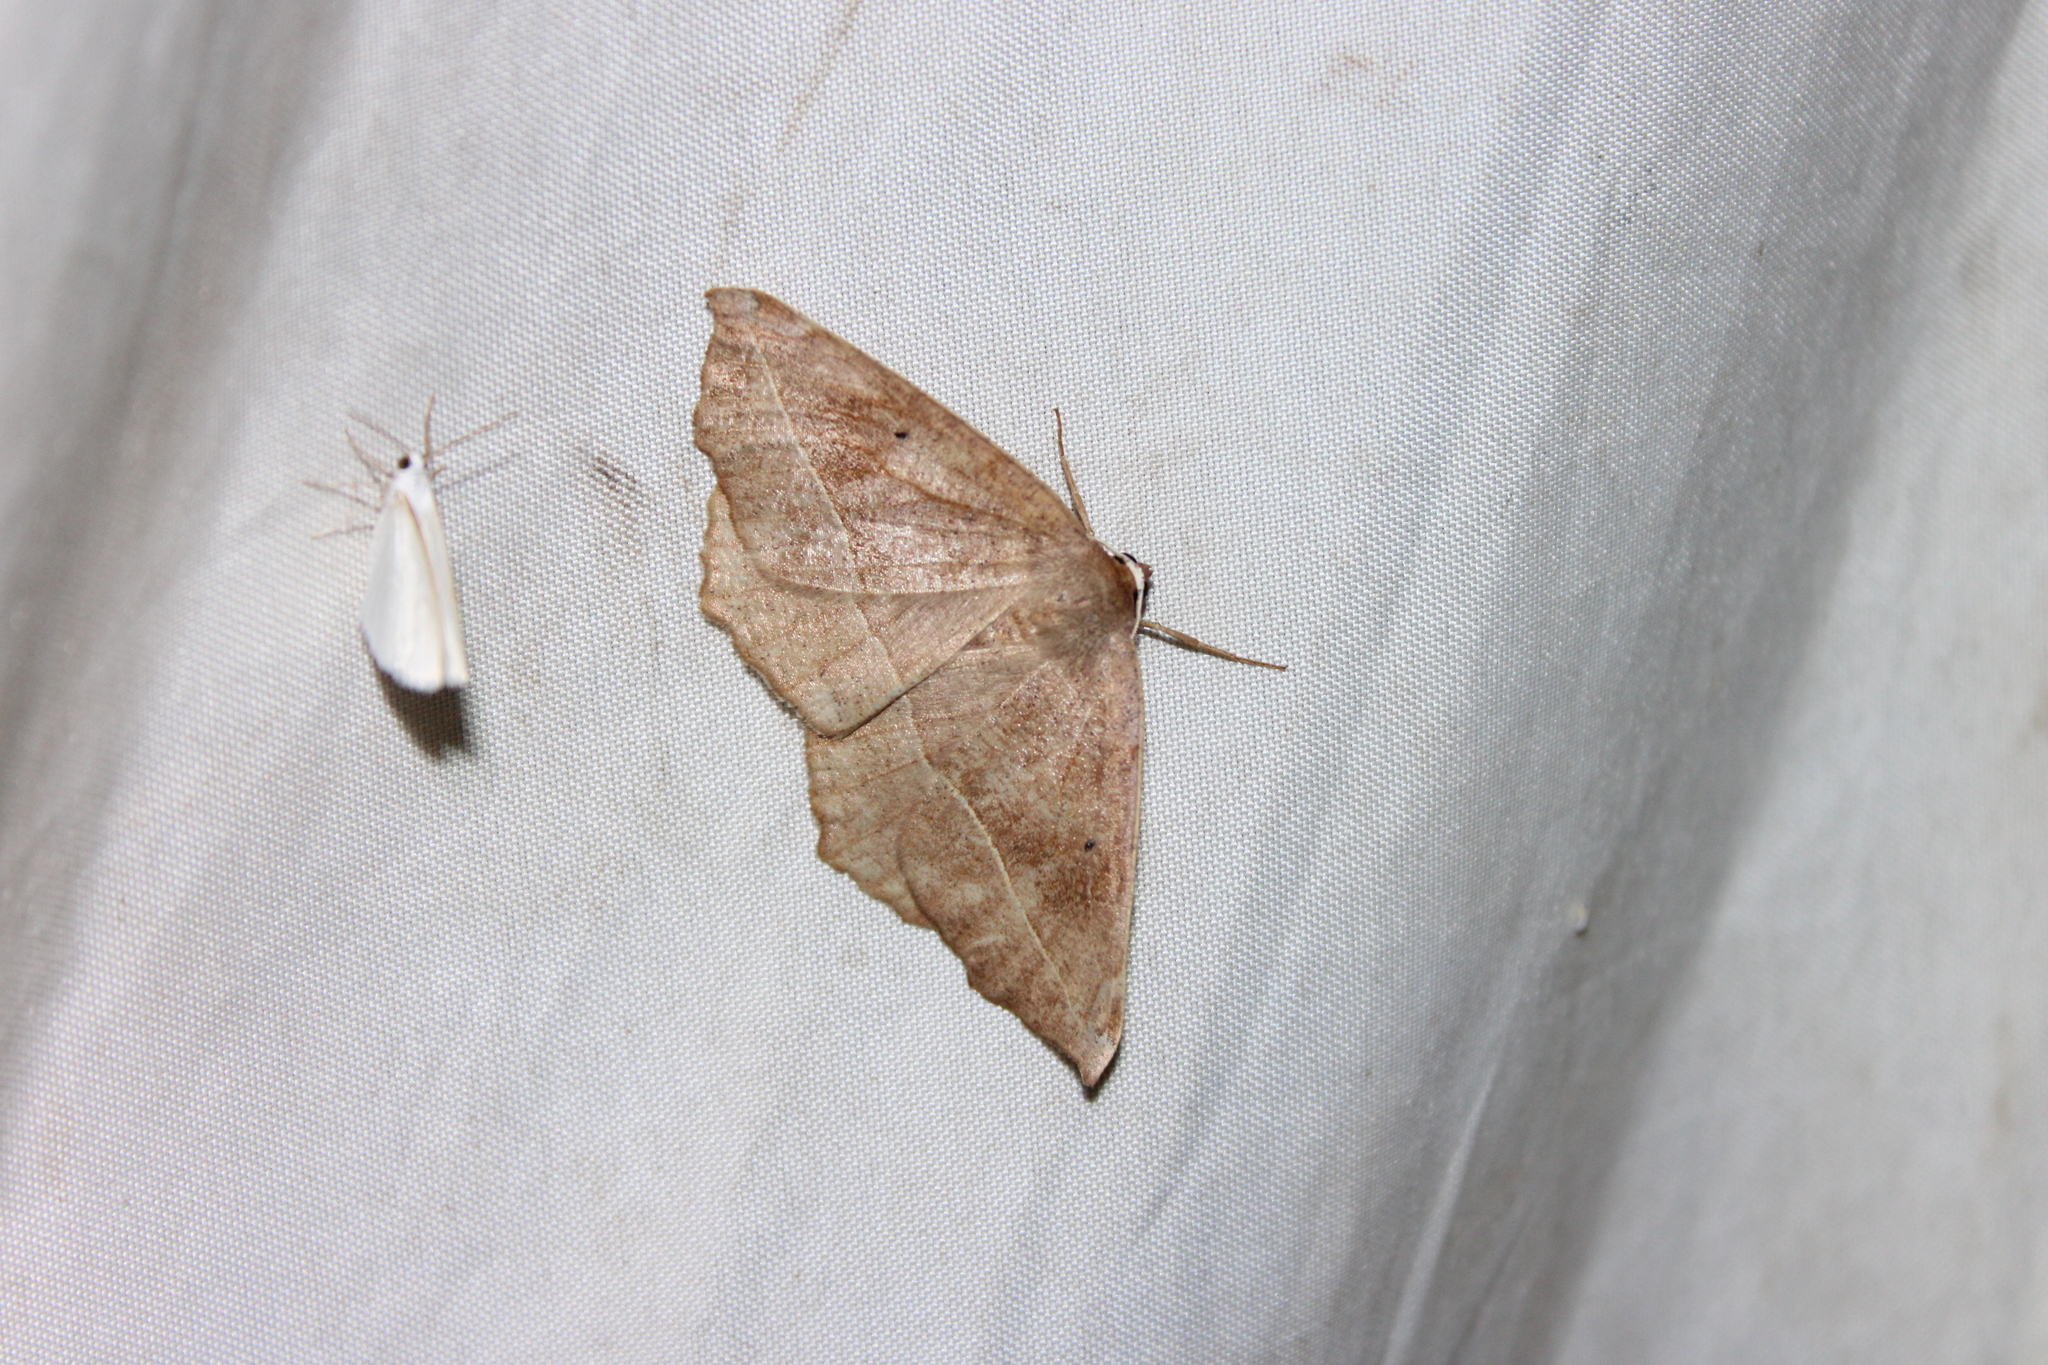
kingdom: Animalia
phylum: Arthropoda
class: Insecta
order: Lepidoptera
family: Geometridae
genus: Eutrapela
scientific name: Eutrapela clemataria
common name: Curved-toothed geometer
